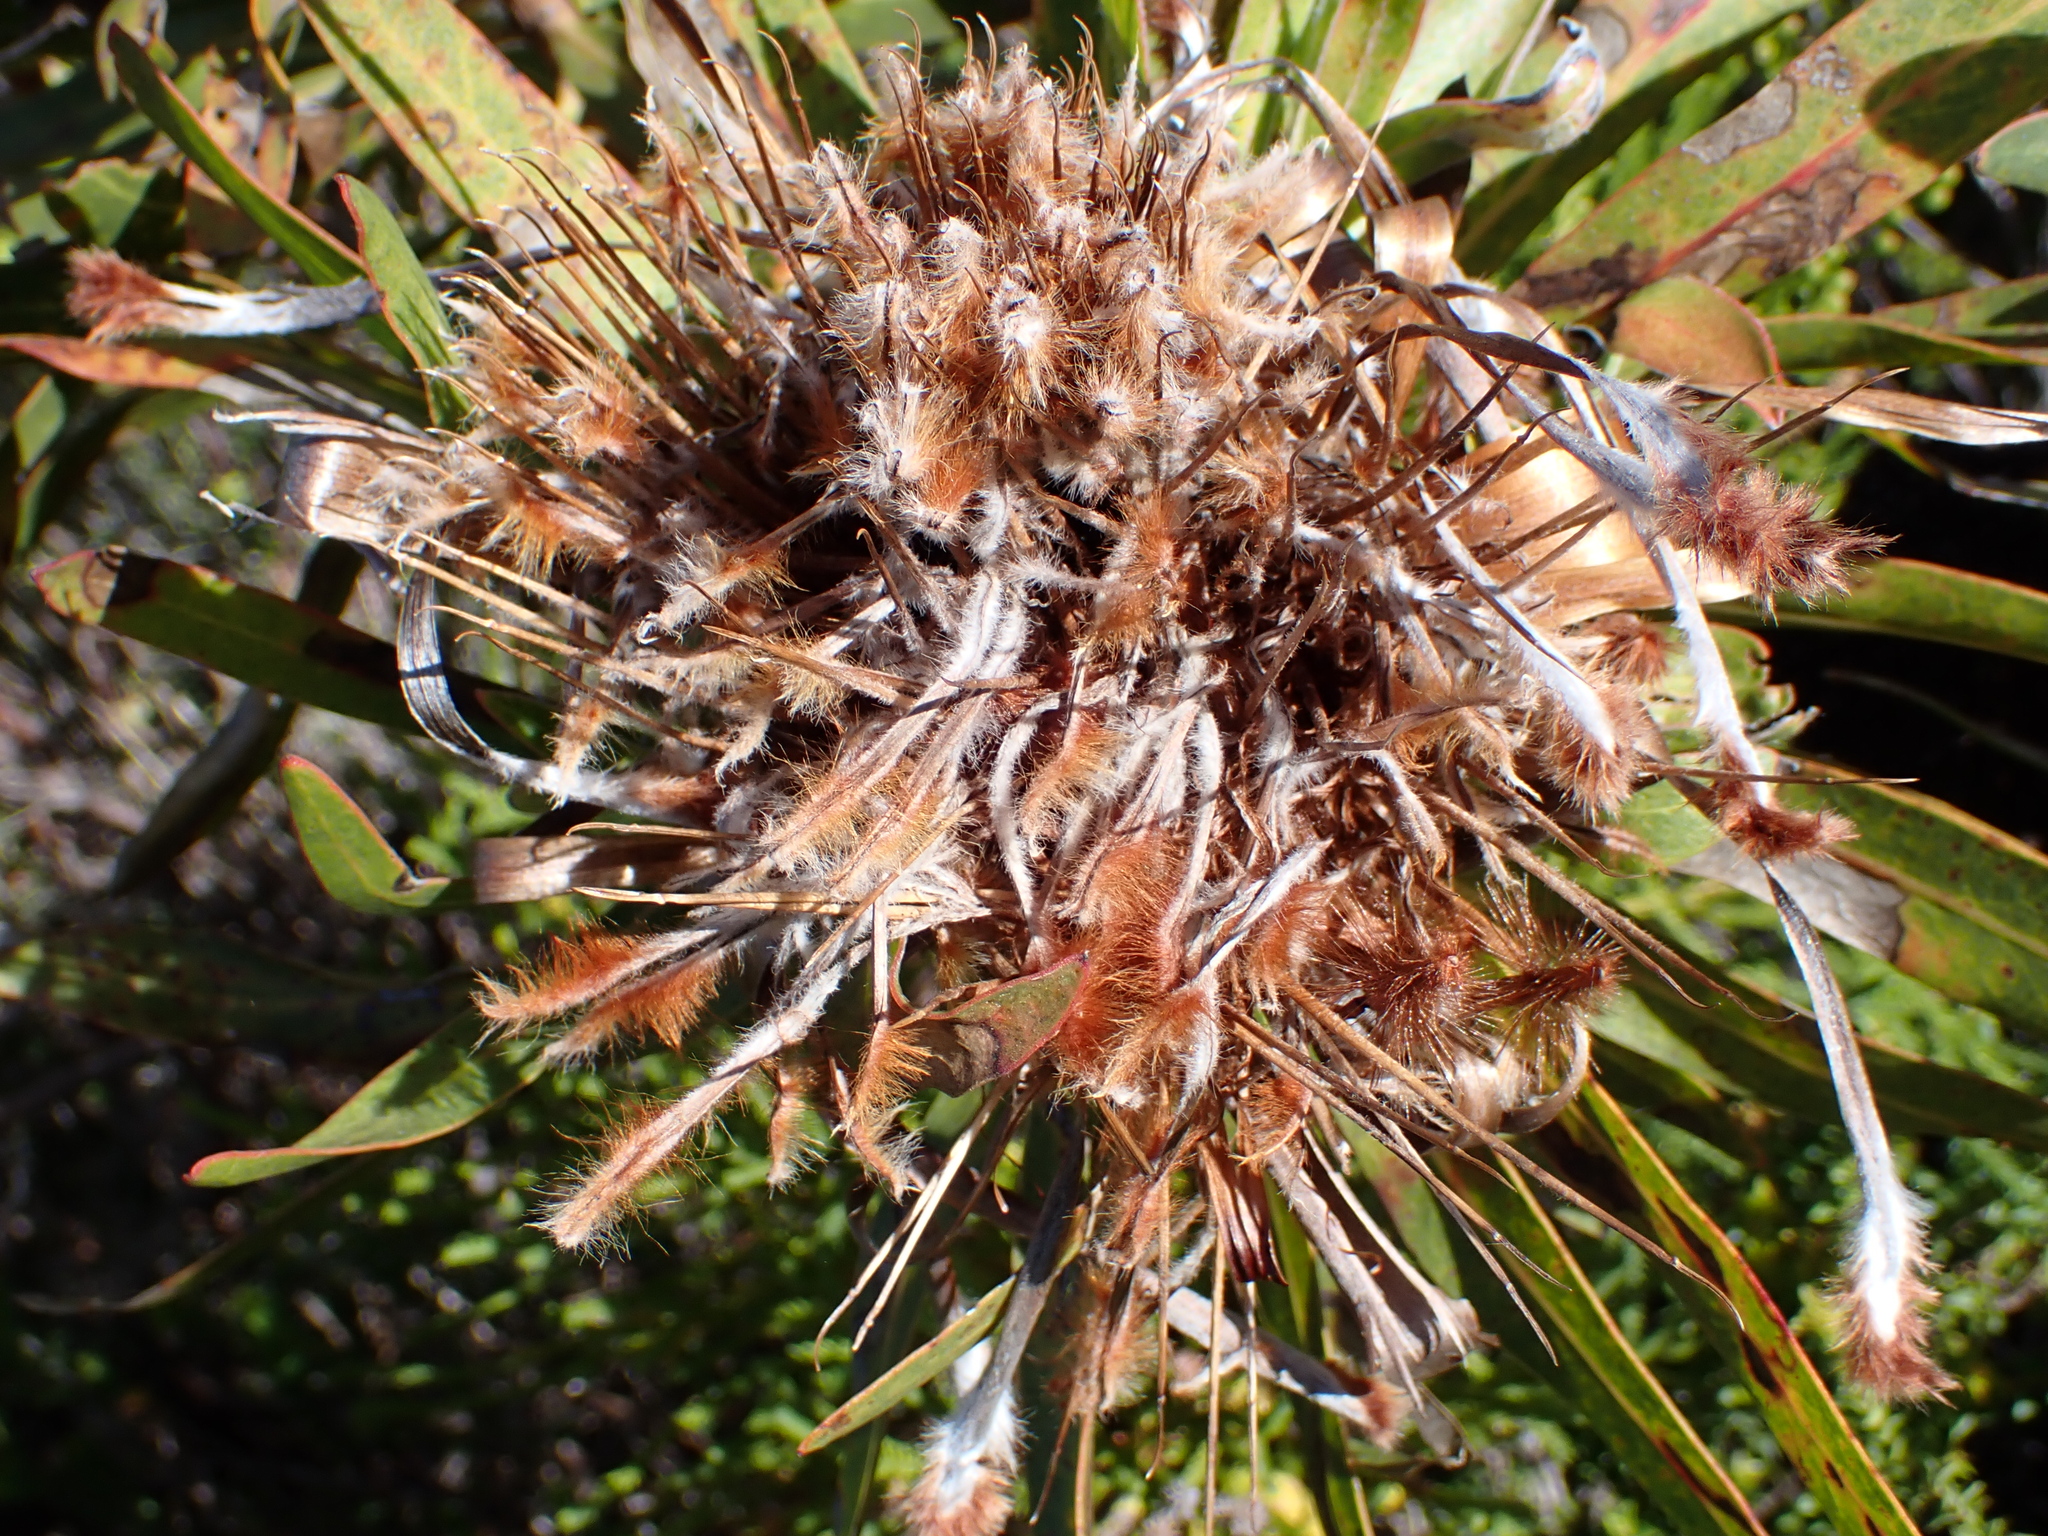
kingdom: Plantae
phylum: Tracheophyta
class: Magnoliopsida
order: Proteales
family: Proteaceae
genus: Protea
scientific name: Protea neriifolia
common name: Blue sugarbush
